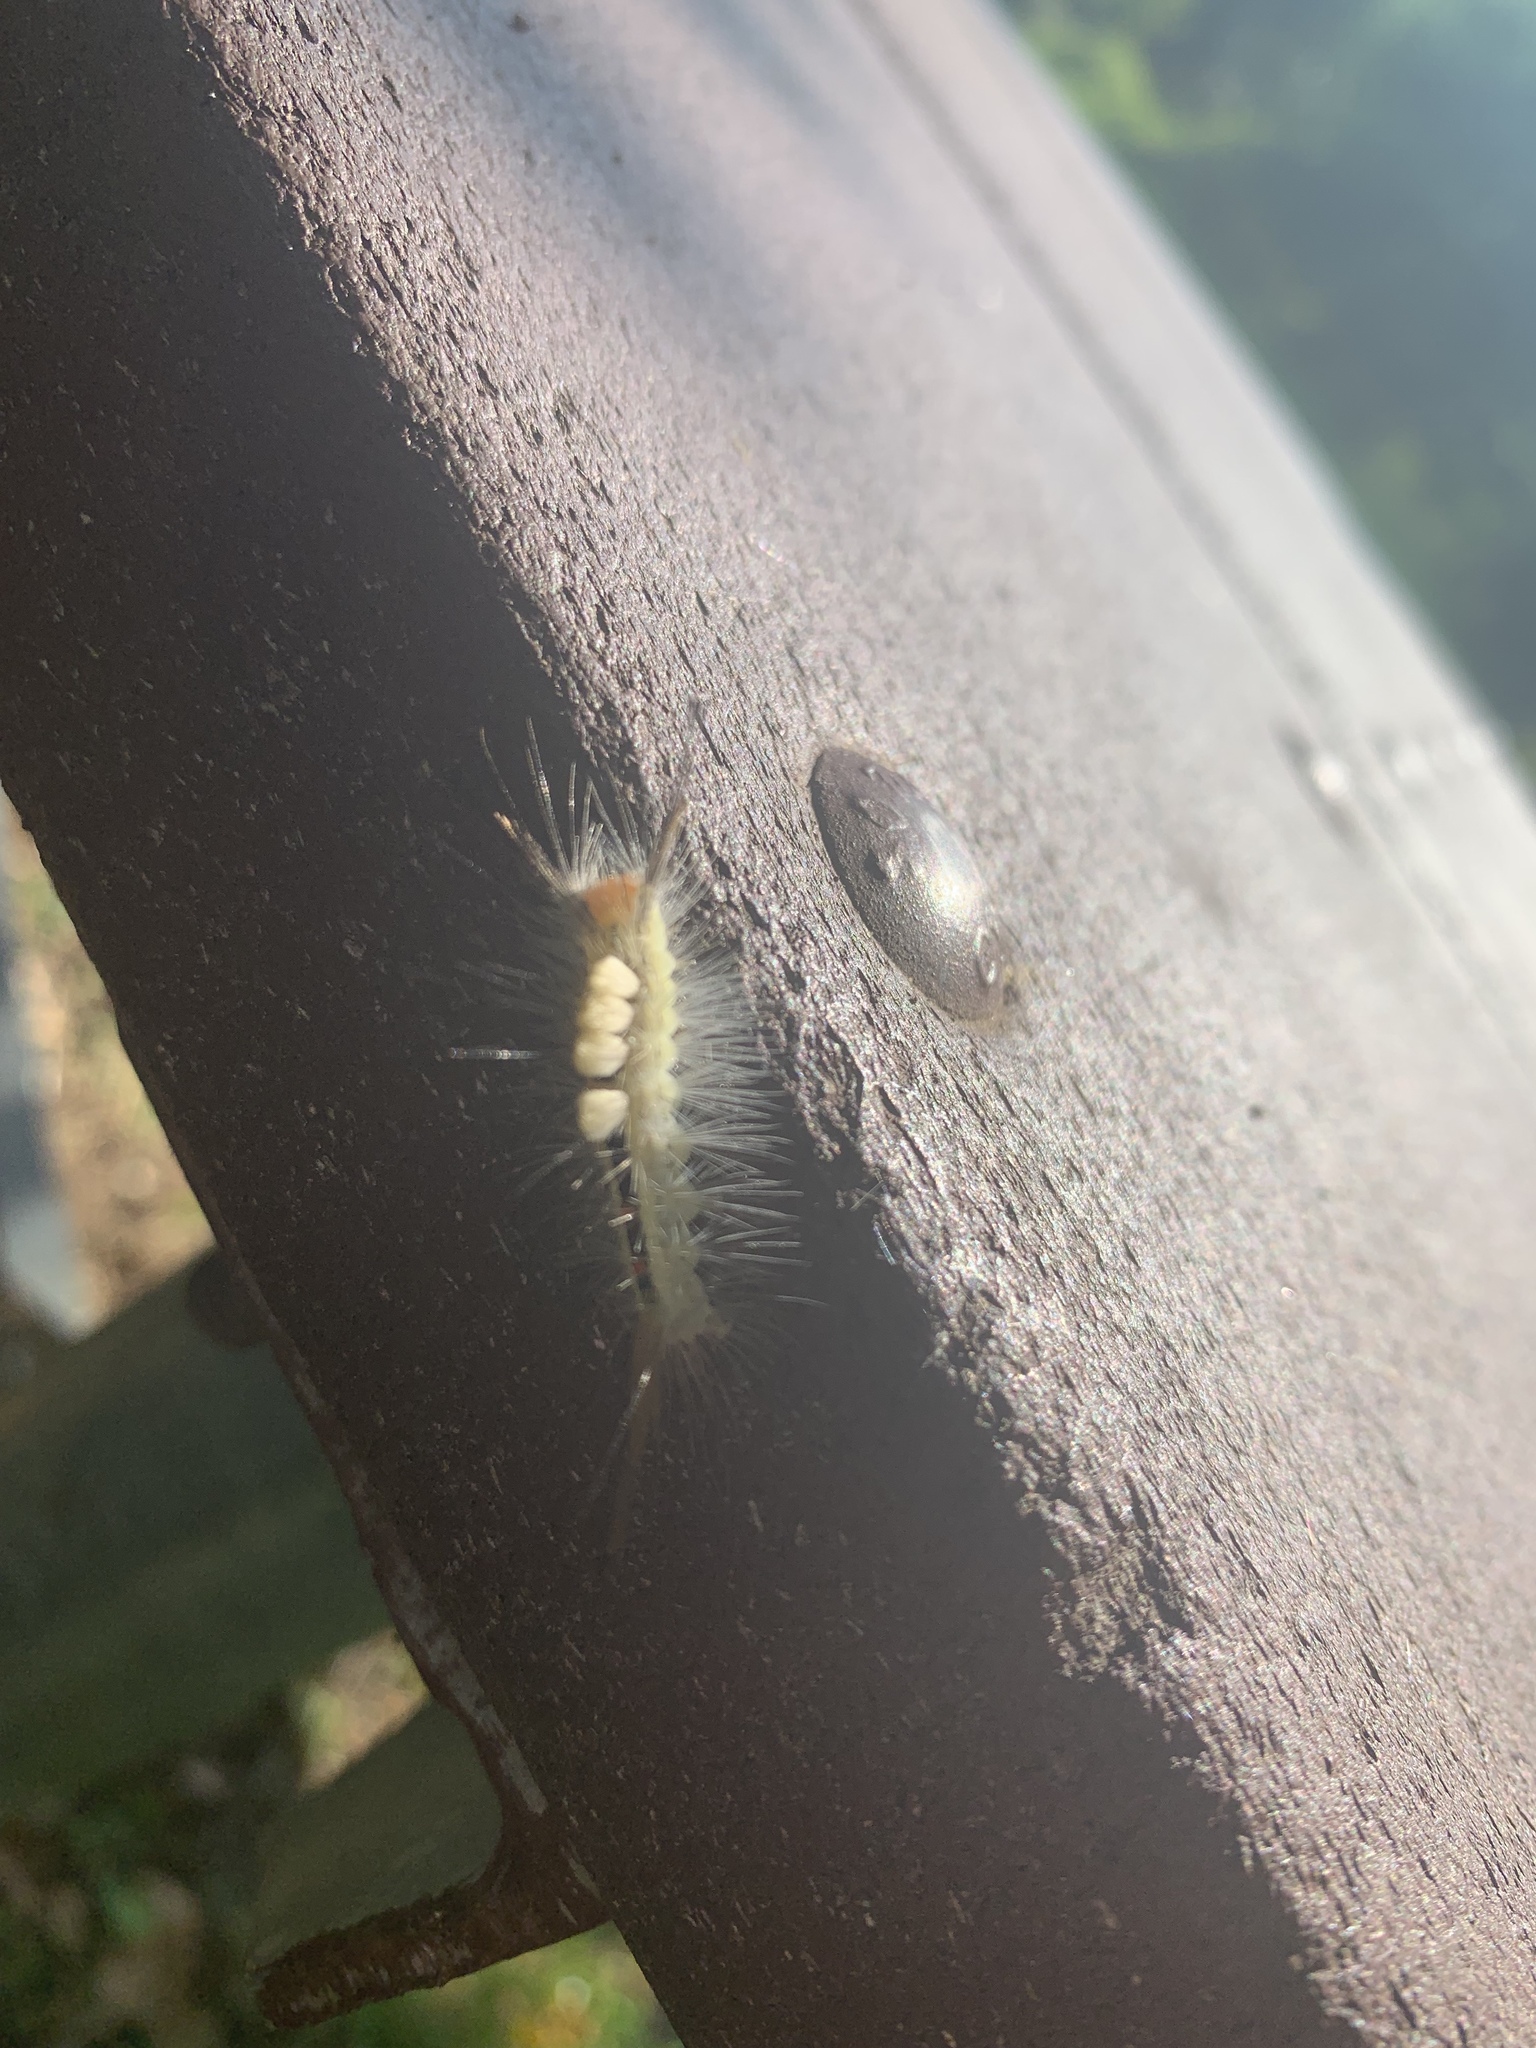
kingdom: Animalia
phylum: Arthropoda
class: Insecta
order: Lepidoptera
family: Erebidae
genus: Orgyia
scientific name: Orgyia leucostigma
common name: White-marked tussock moth
